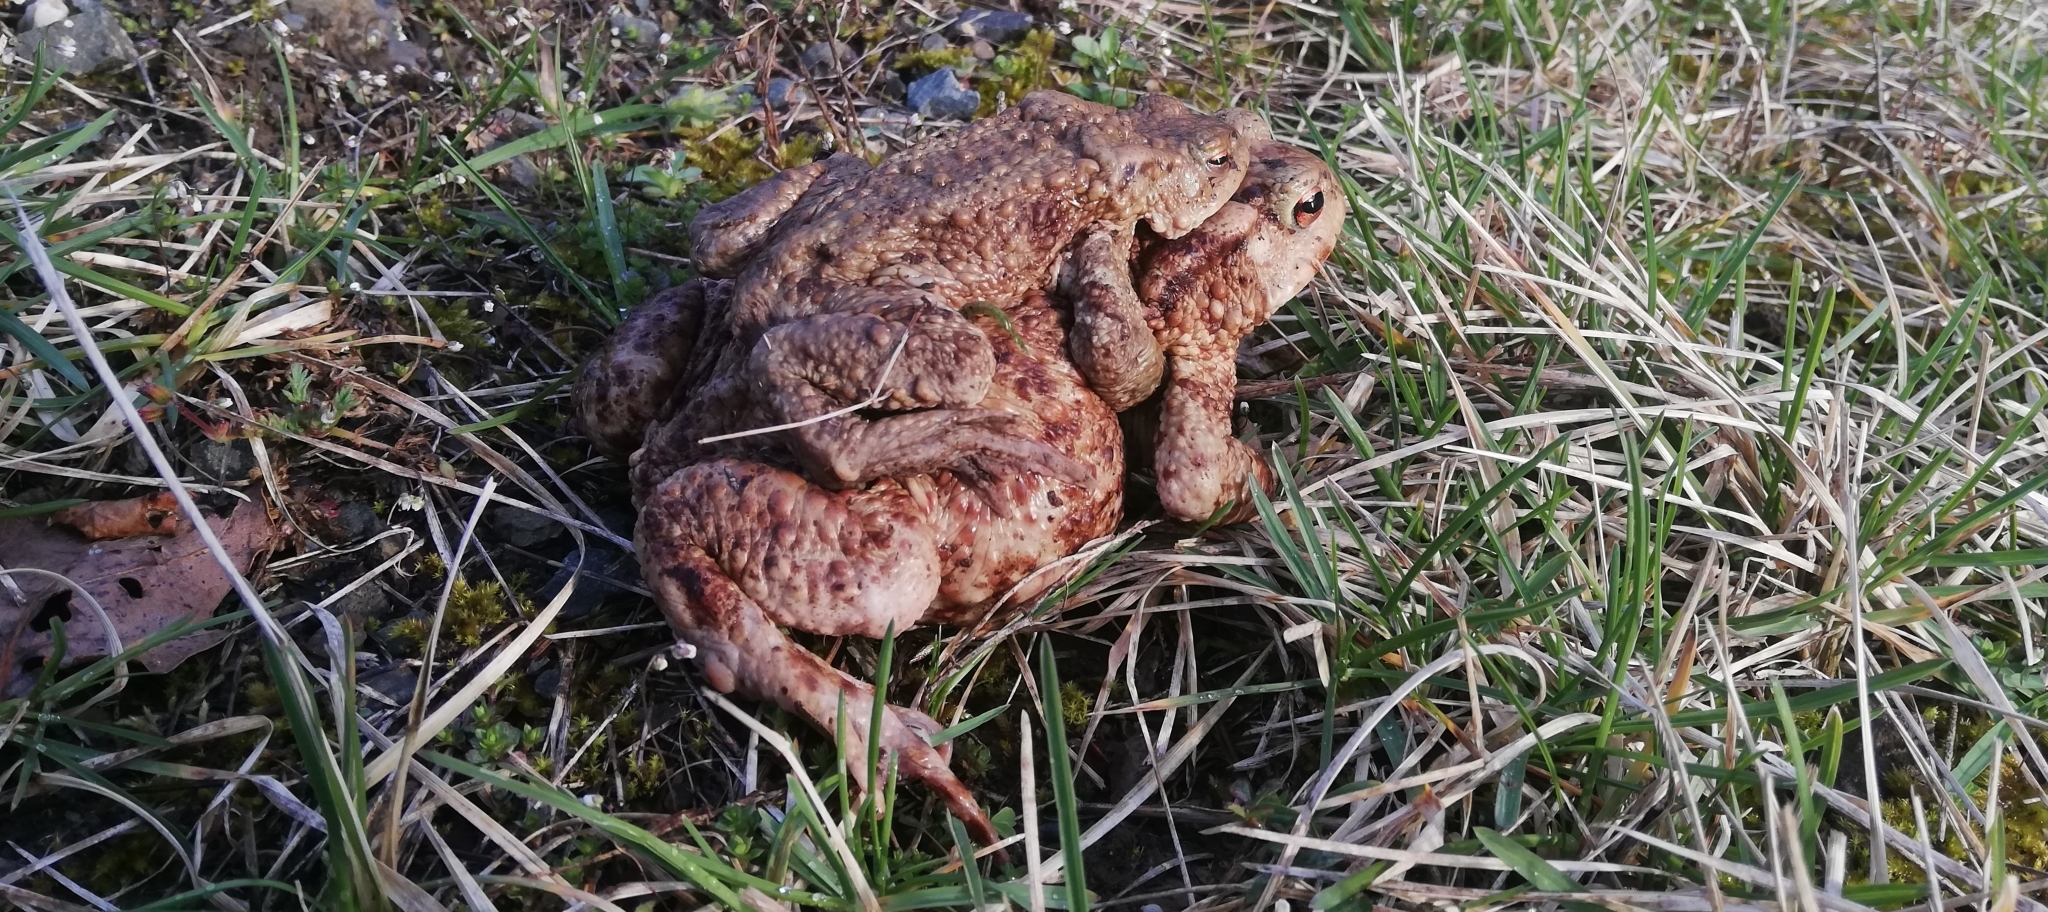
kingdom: Animalia
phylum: Chordata
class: Amphibia
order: Anura
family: Bufonidae
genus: Bufo
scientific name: Bufo bufo
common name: Common toad
